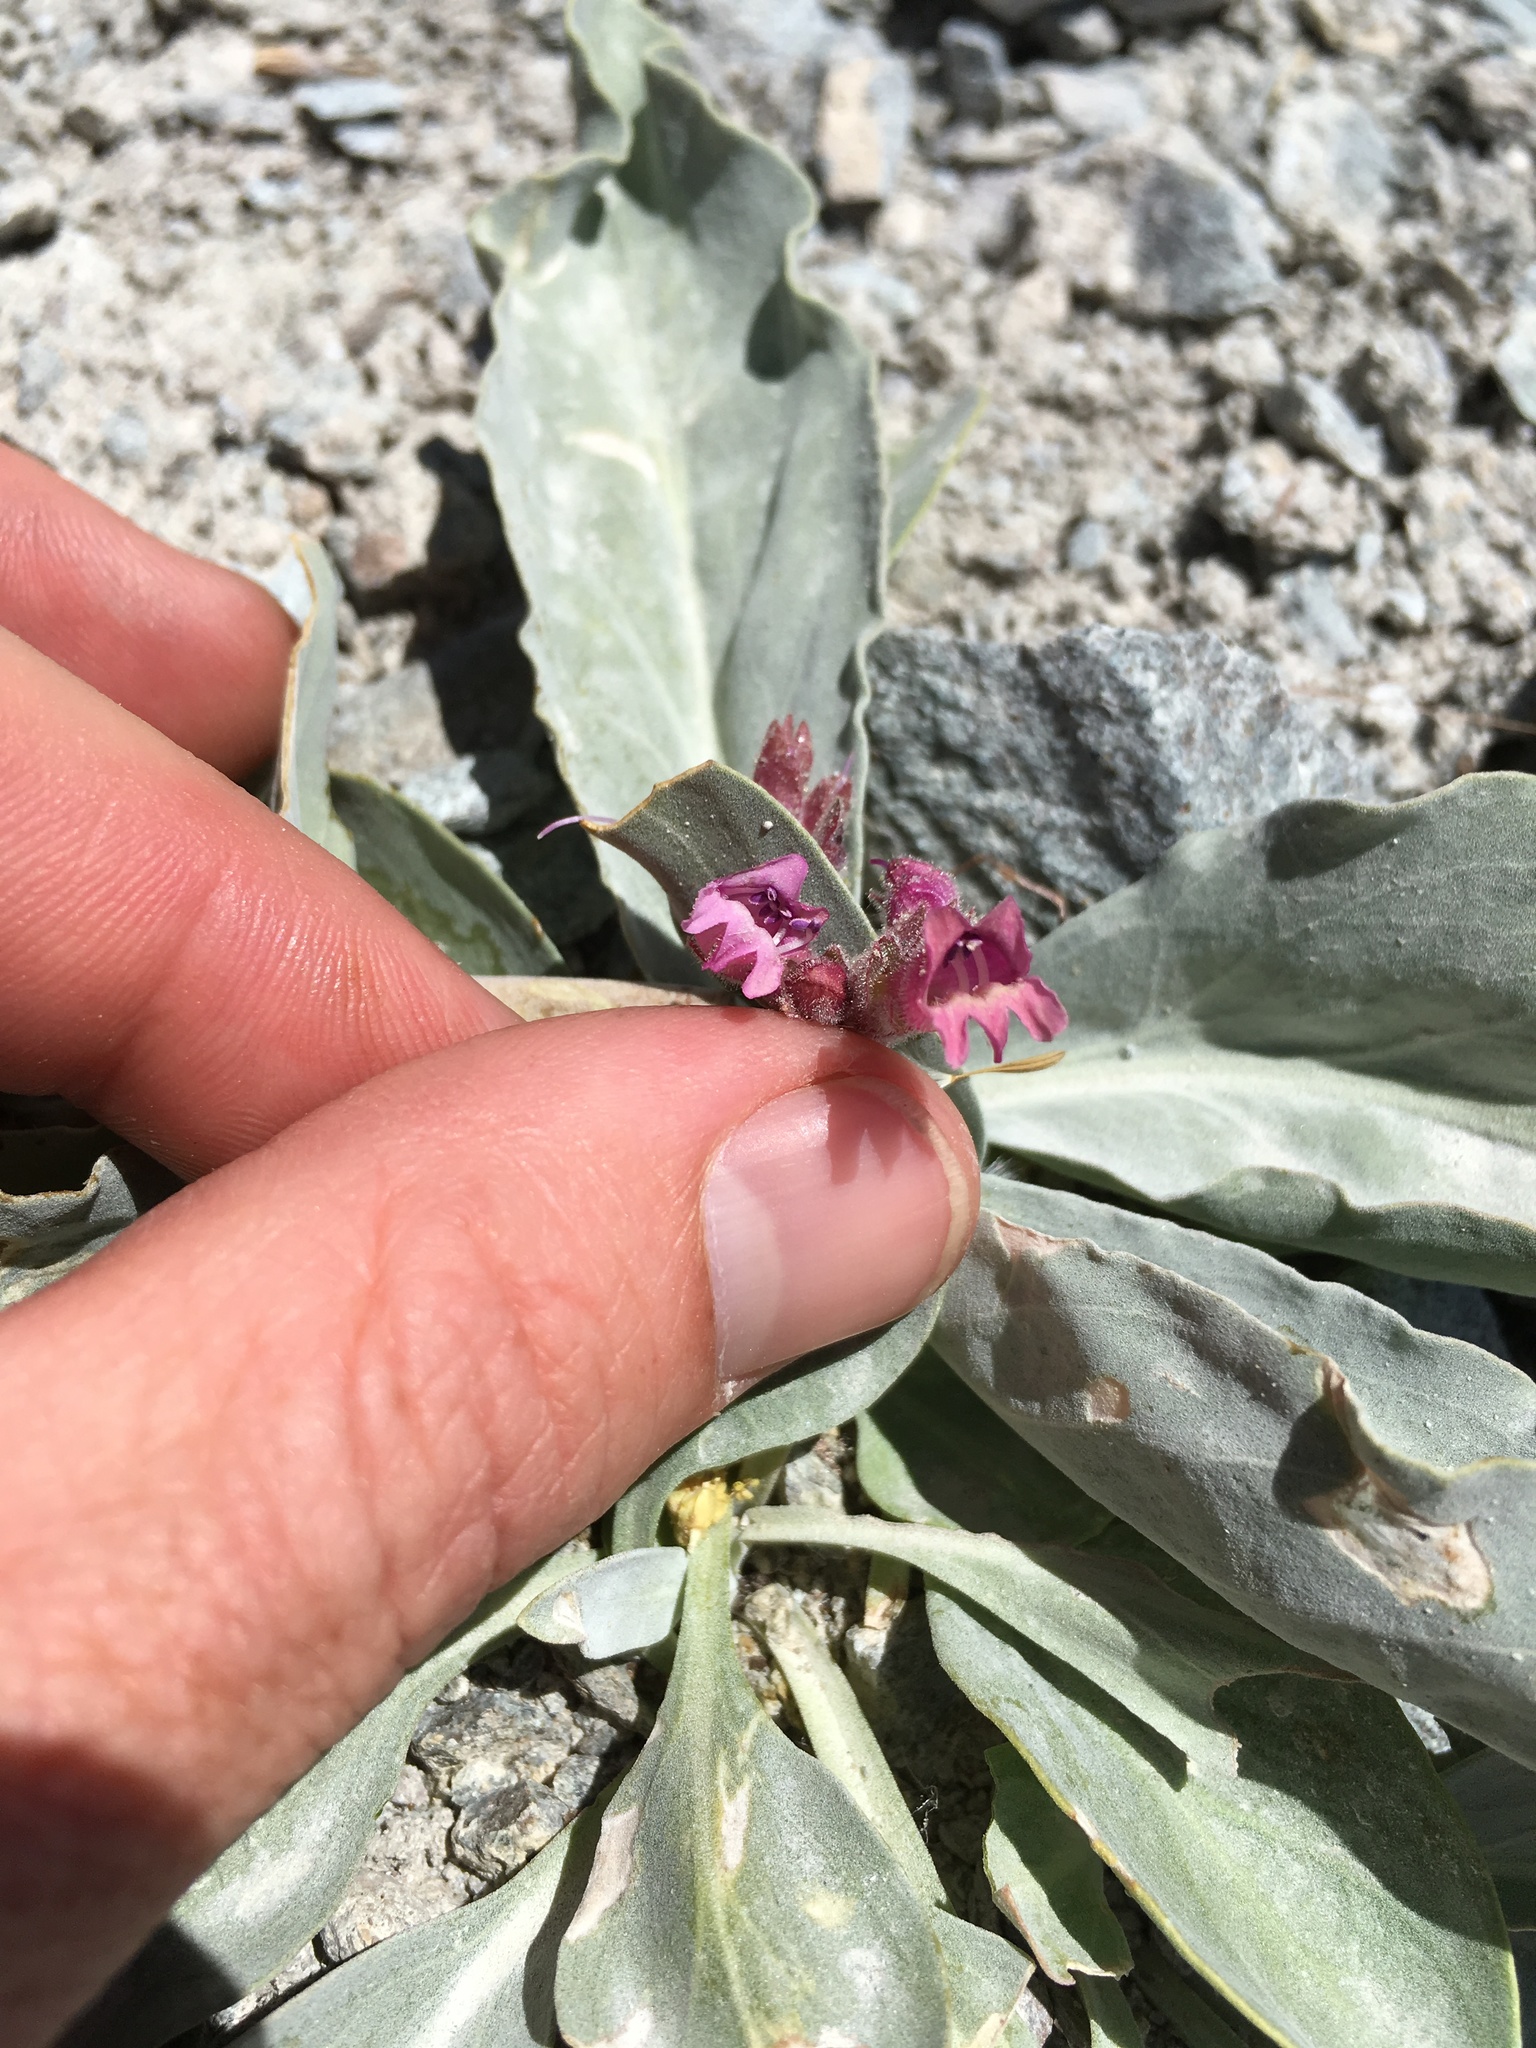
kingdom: Plantae
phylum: Tracheophyta
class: Magnoliopsida
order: Lamiales
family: Plantaginaceae
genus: Penstemon
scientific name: Penstemon monoensis
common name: Mono penstemon
